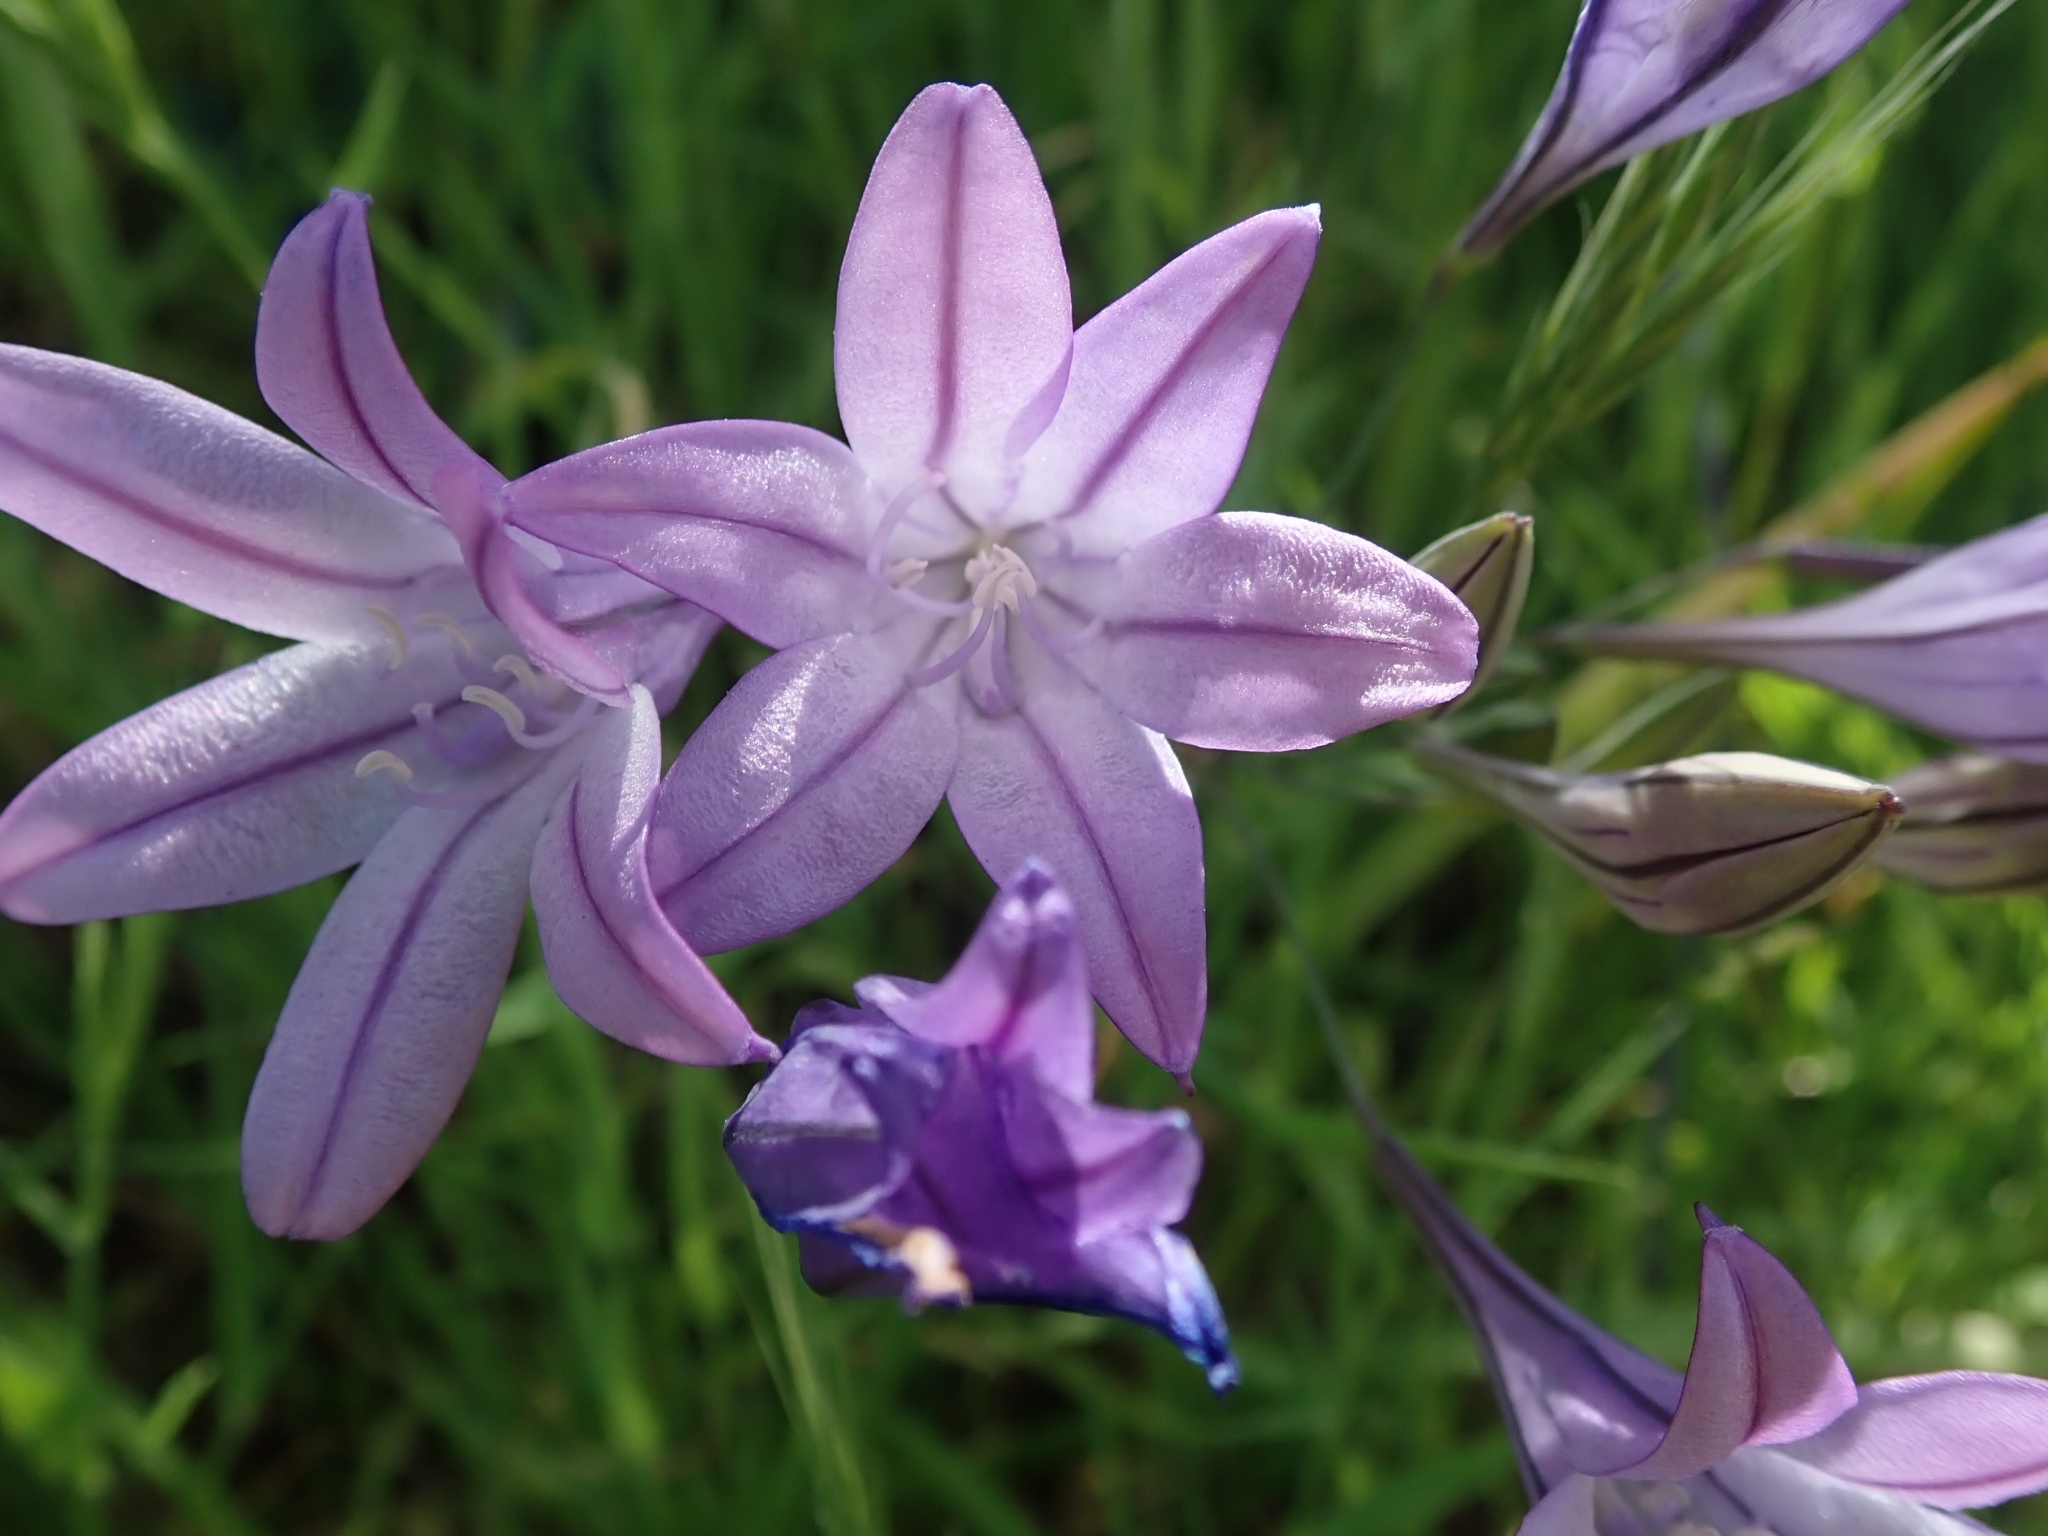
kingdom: Plantae
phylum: Tracheophyta
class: Liliopsida
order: Asparagales
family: Asparagaceae
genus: Triteleia
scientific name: Triteleia laxa
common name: Triplet-lily
